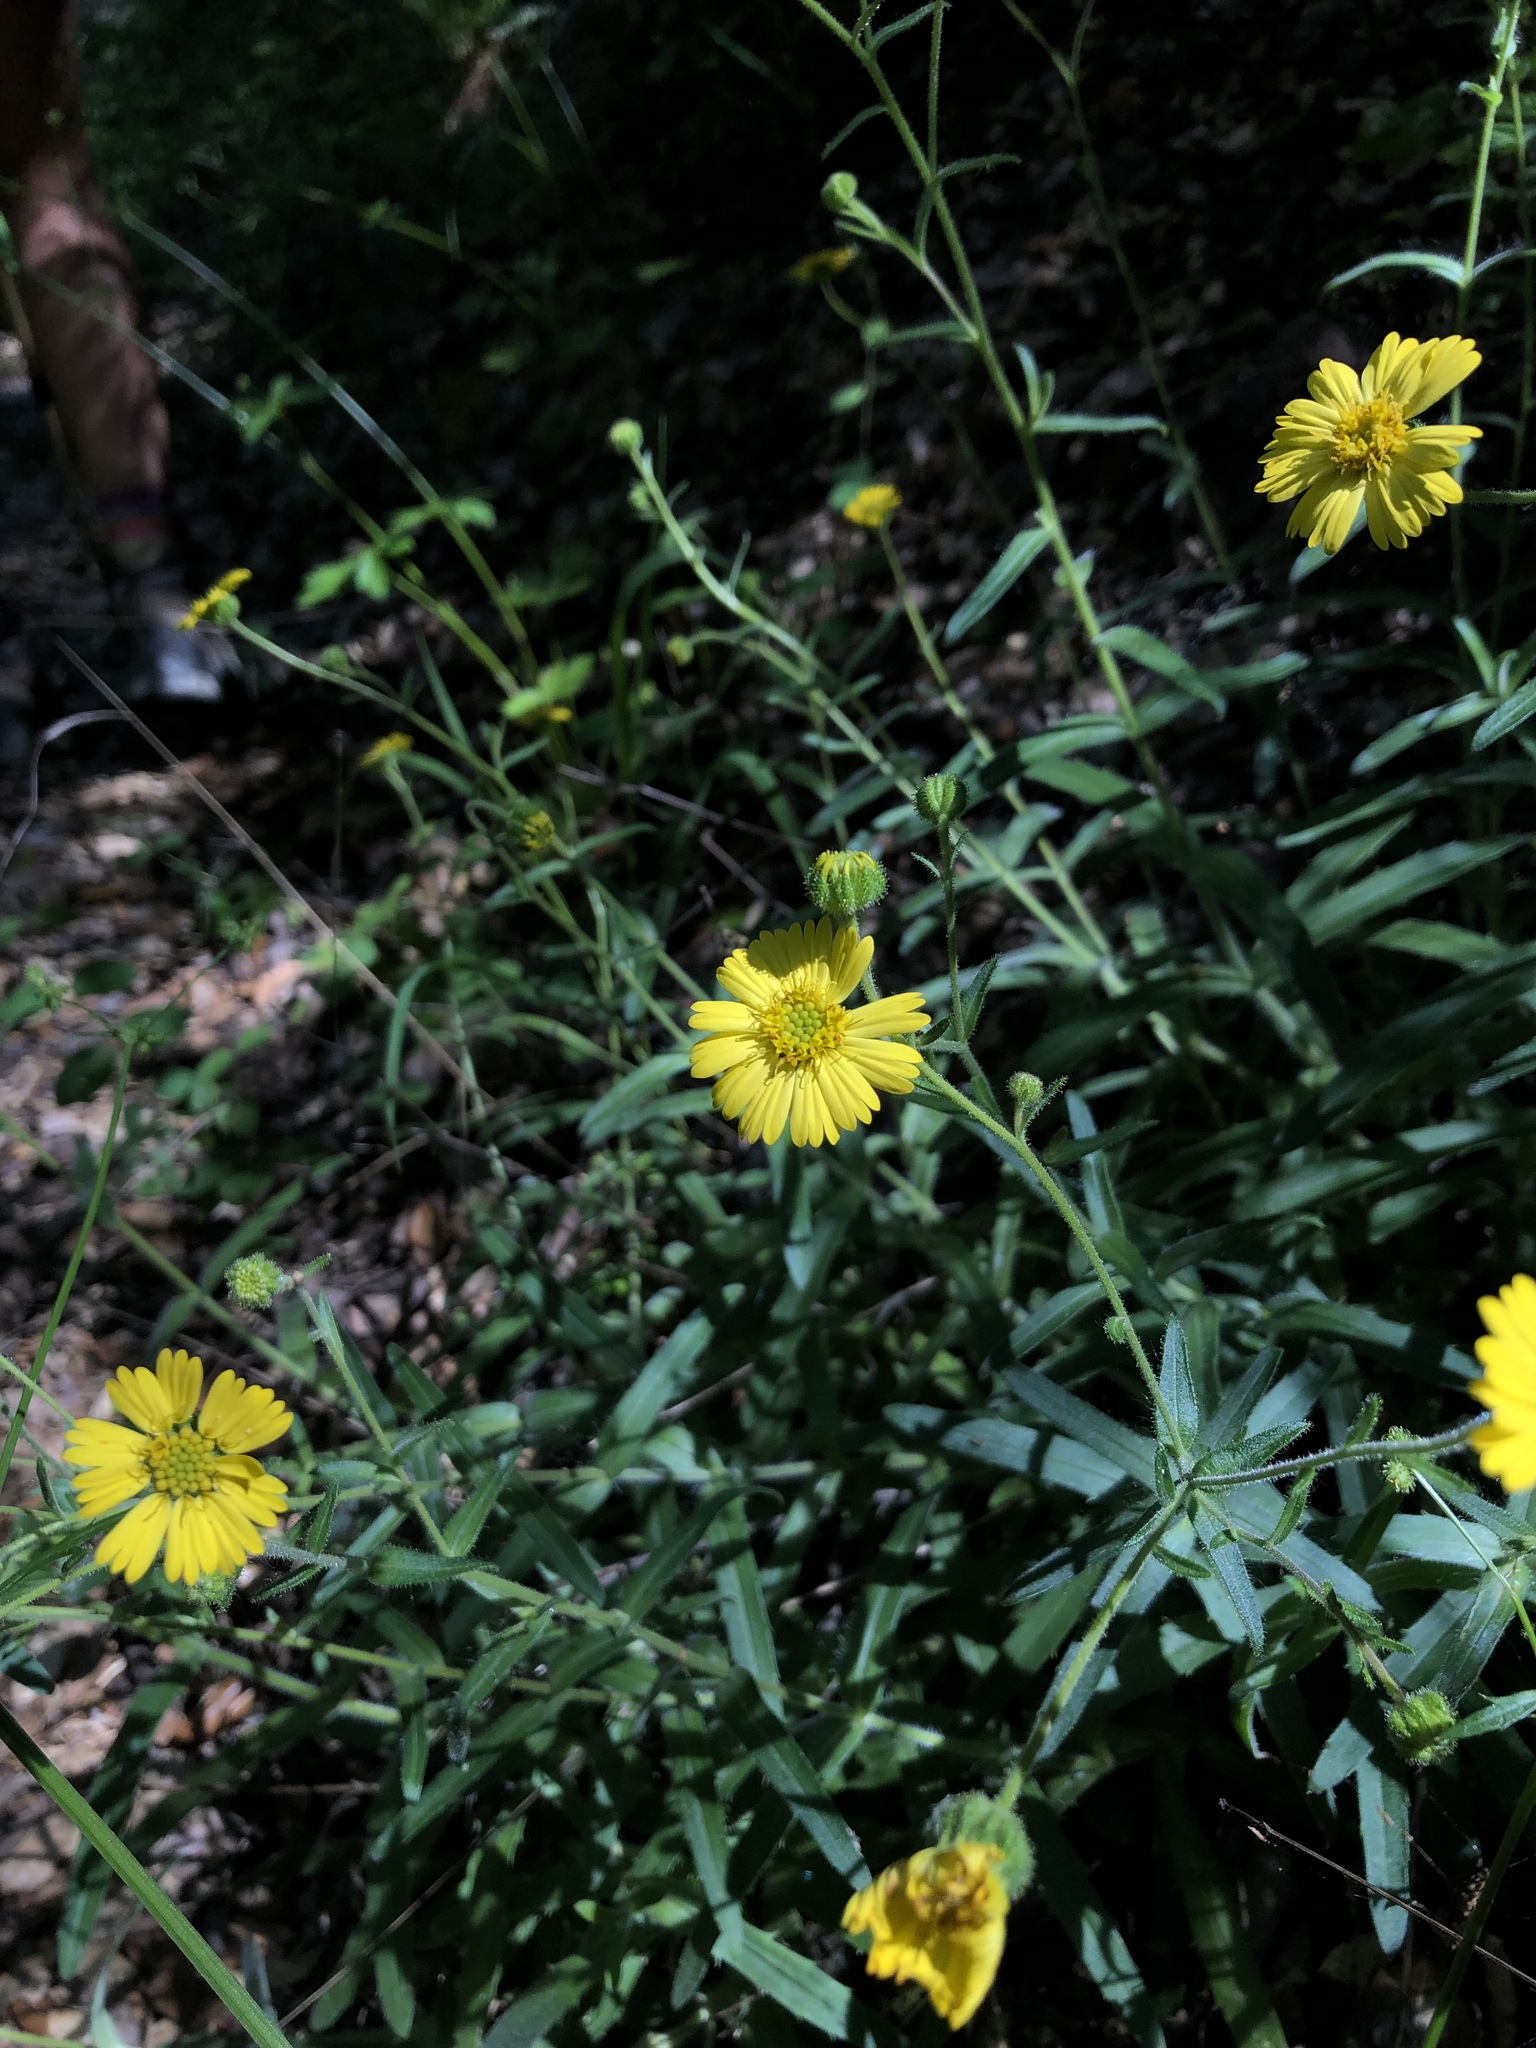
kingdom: Plantae
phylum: Tracheophyta
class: Magnoliopsida
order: Asterales
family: Asteraceae
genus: Anisocarpus
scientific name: Anisocarpus madioides
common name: Woodland madia
